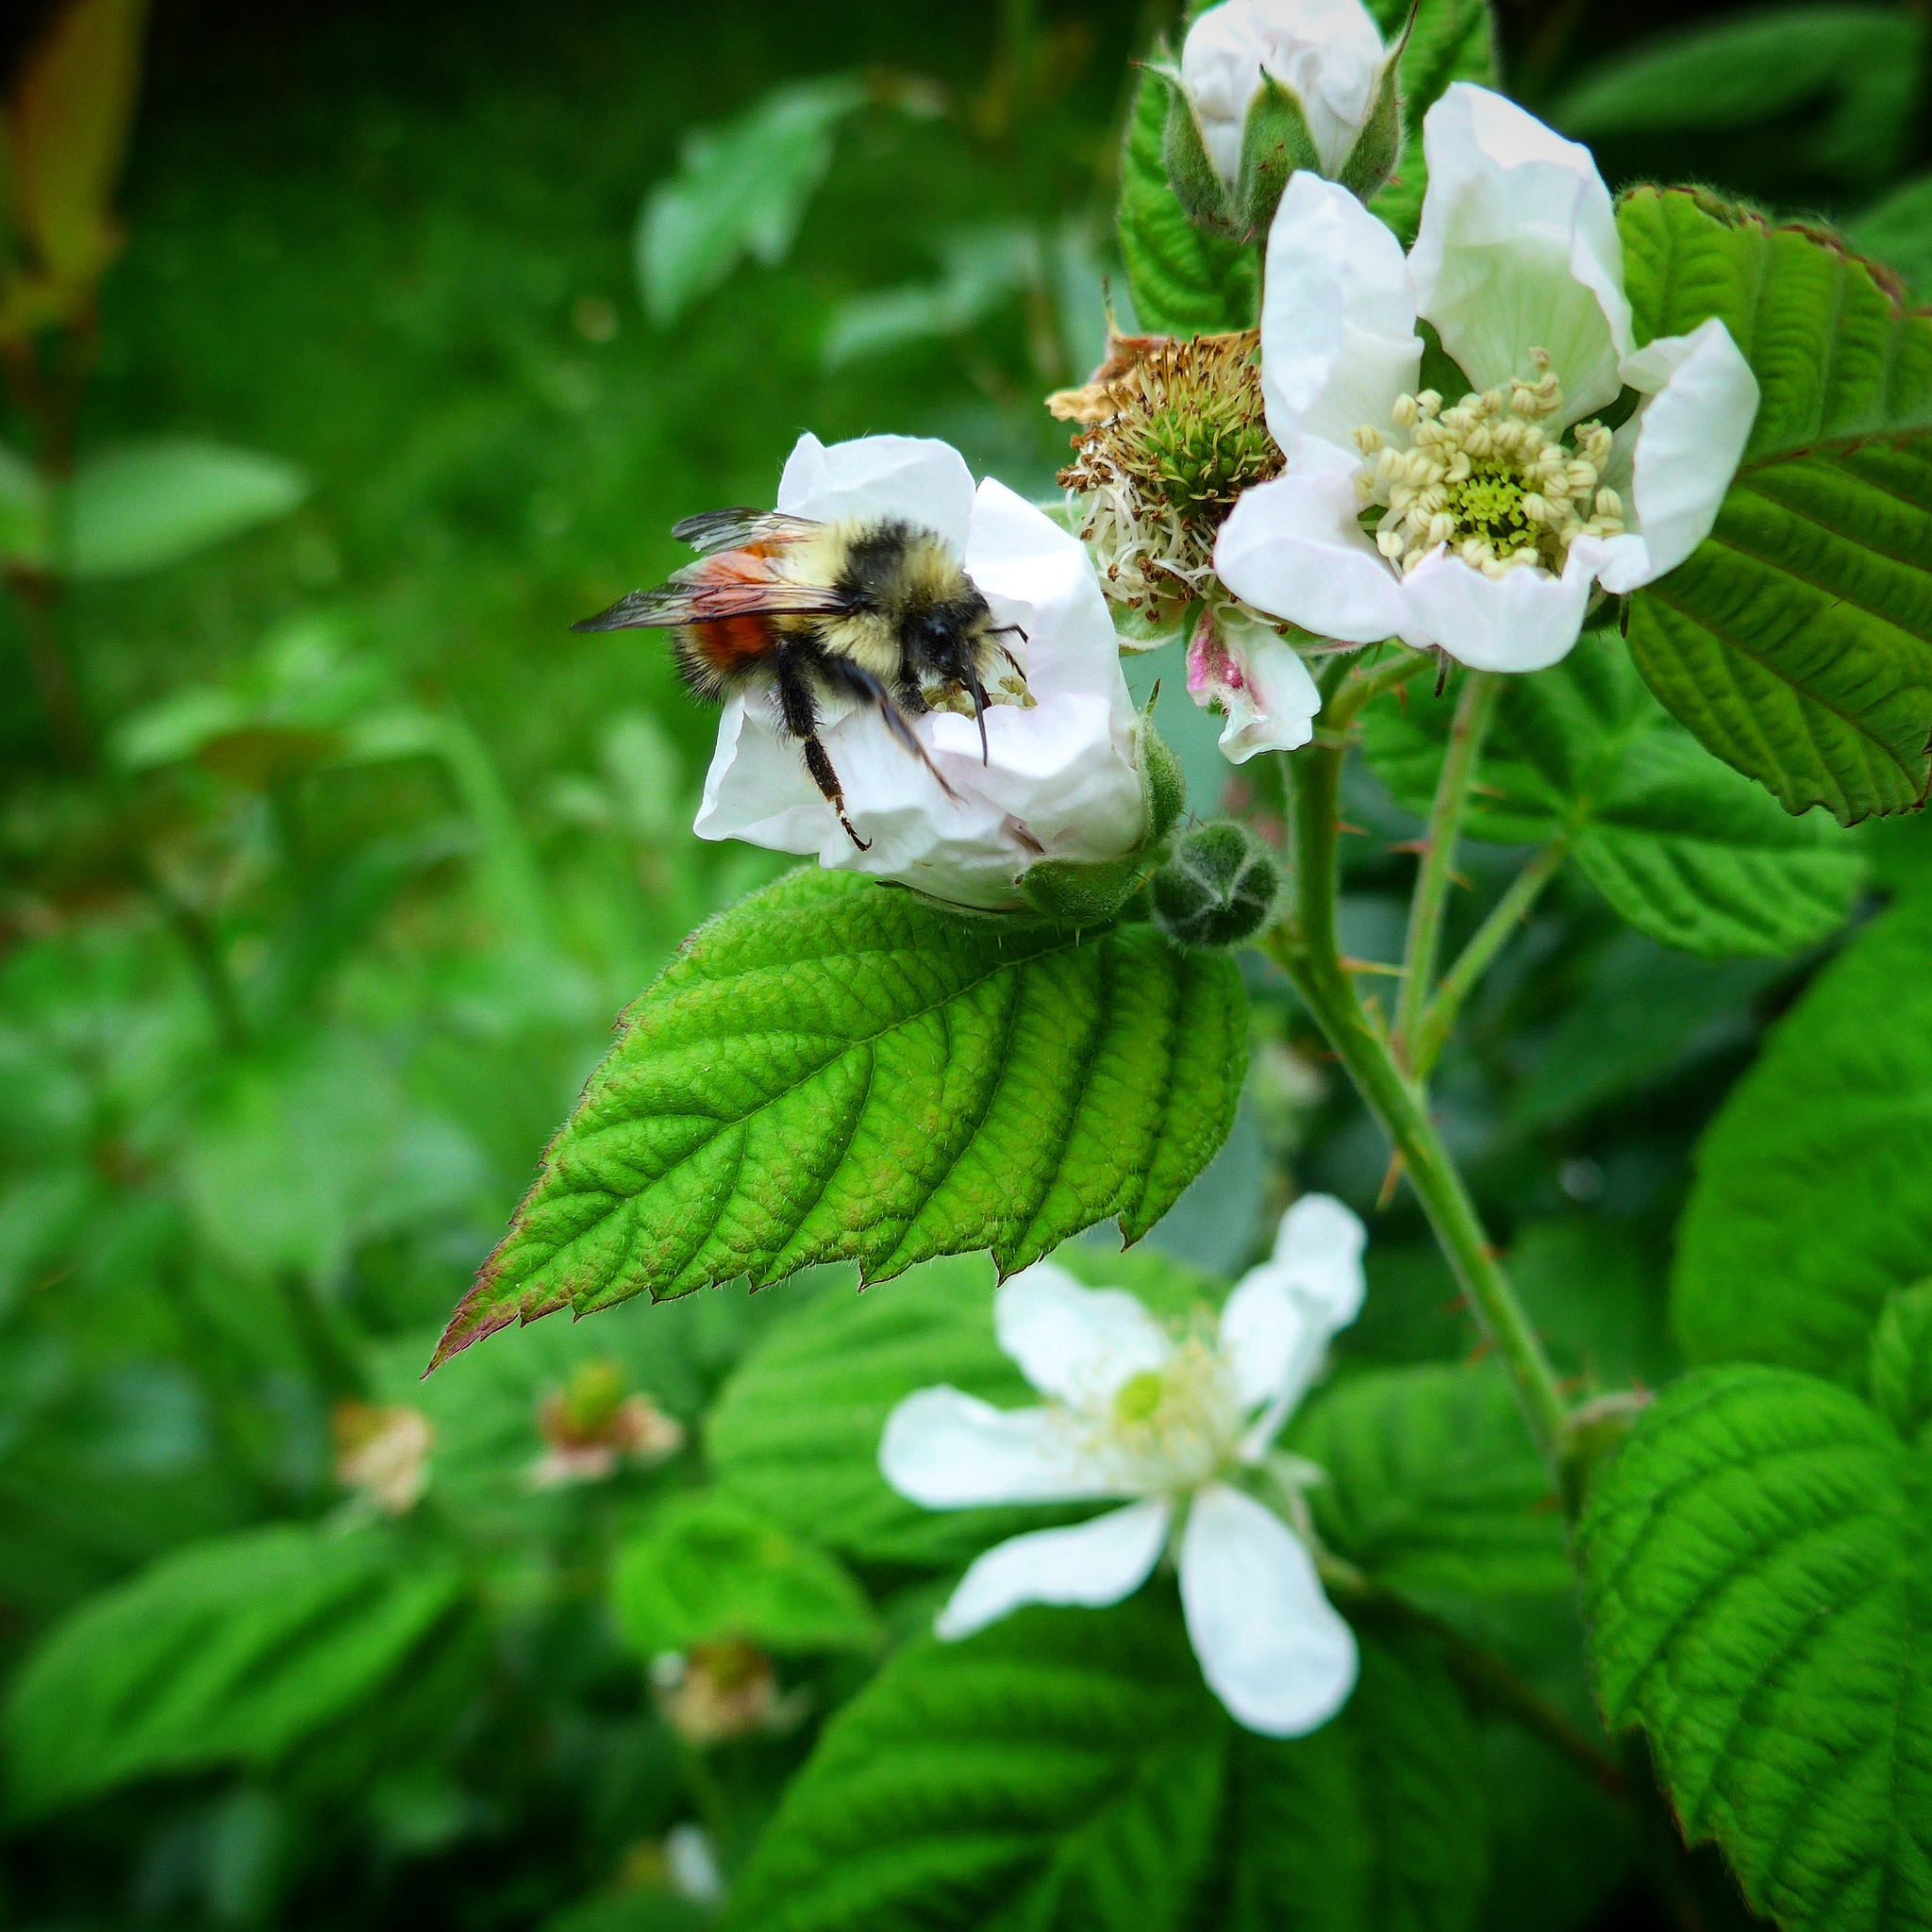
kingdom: Animalia
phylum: Arthropoda
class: Insecta
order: Hymenoptera
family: Apidae
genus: Bombus
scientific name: Bombus melanopygus
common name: Black tail bumble bee
